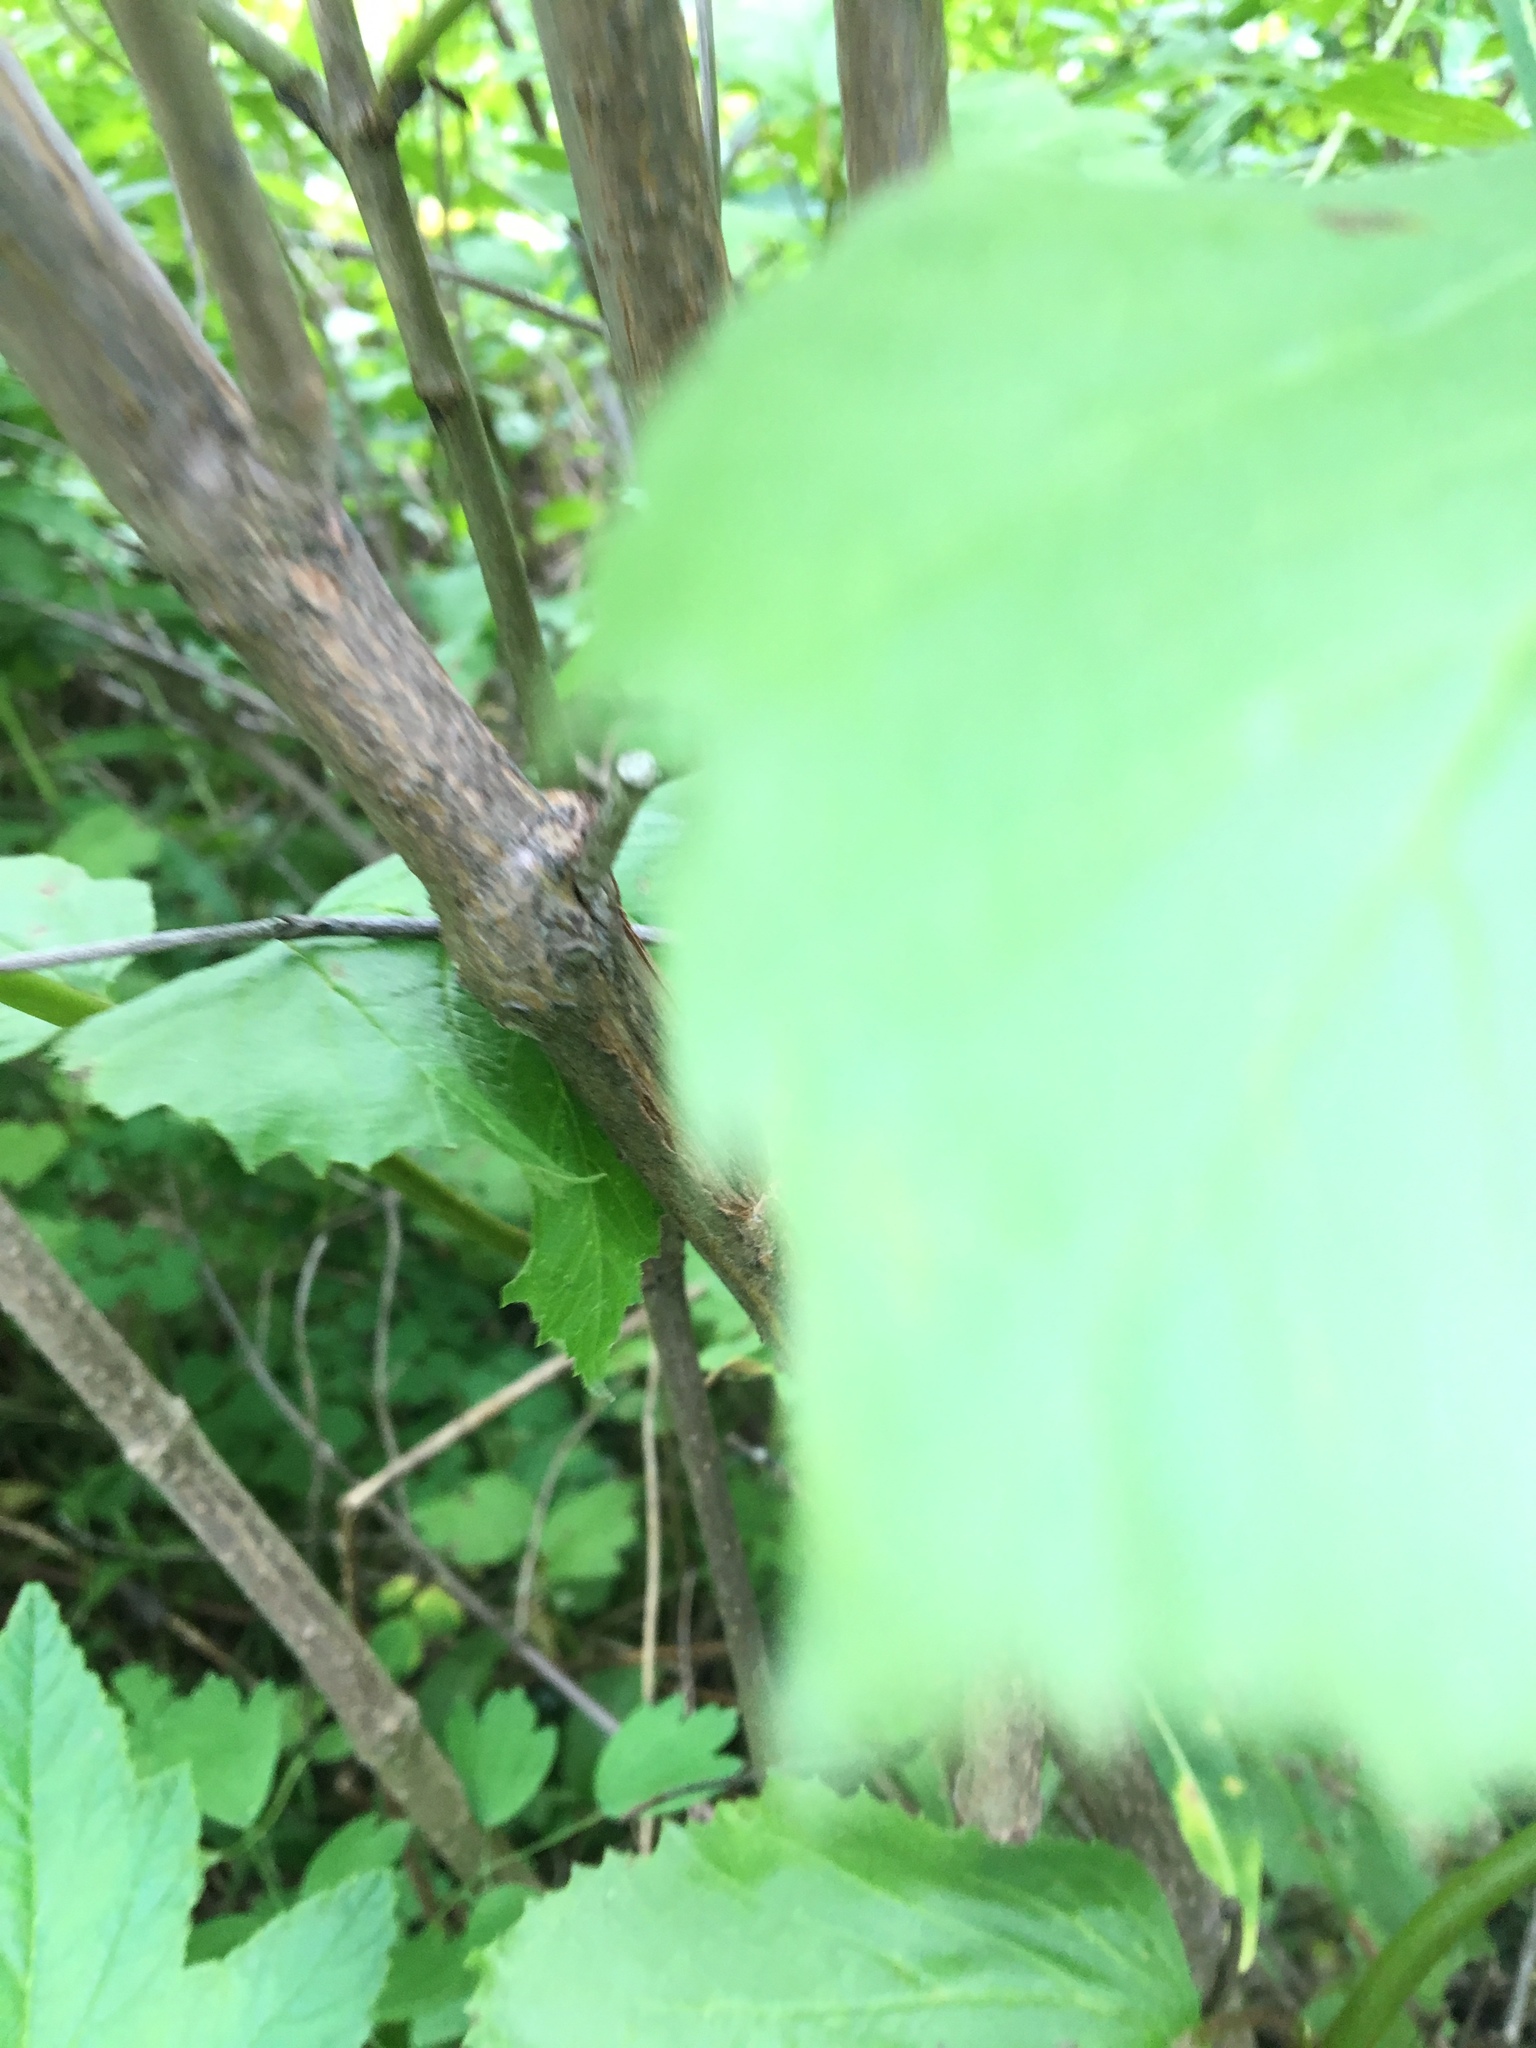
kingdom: Plantae
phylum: Tracheophyta
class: Magnoliopsida
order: Dipsacales
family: Viburnaceae
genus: Viburnum
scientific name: Viburnum edule
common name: Mooseberry
